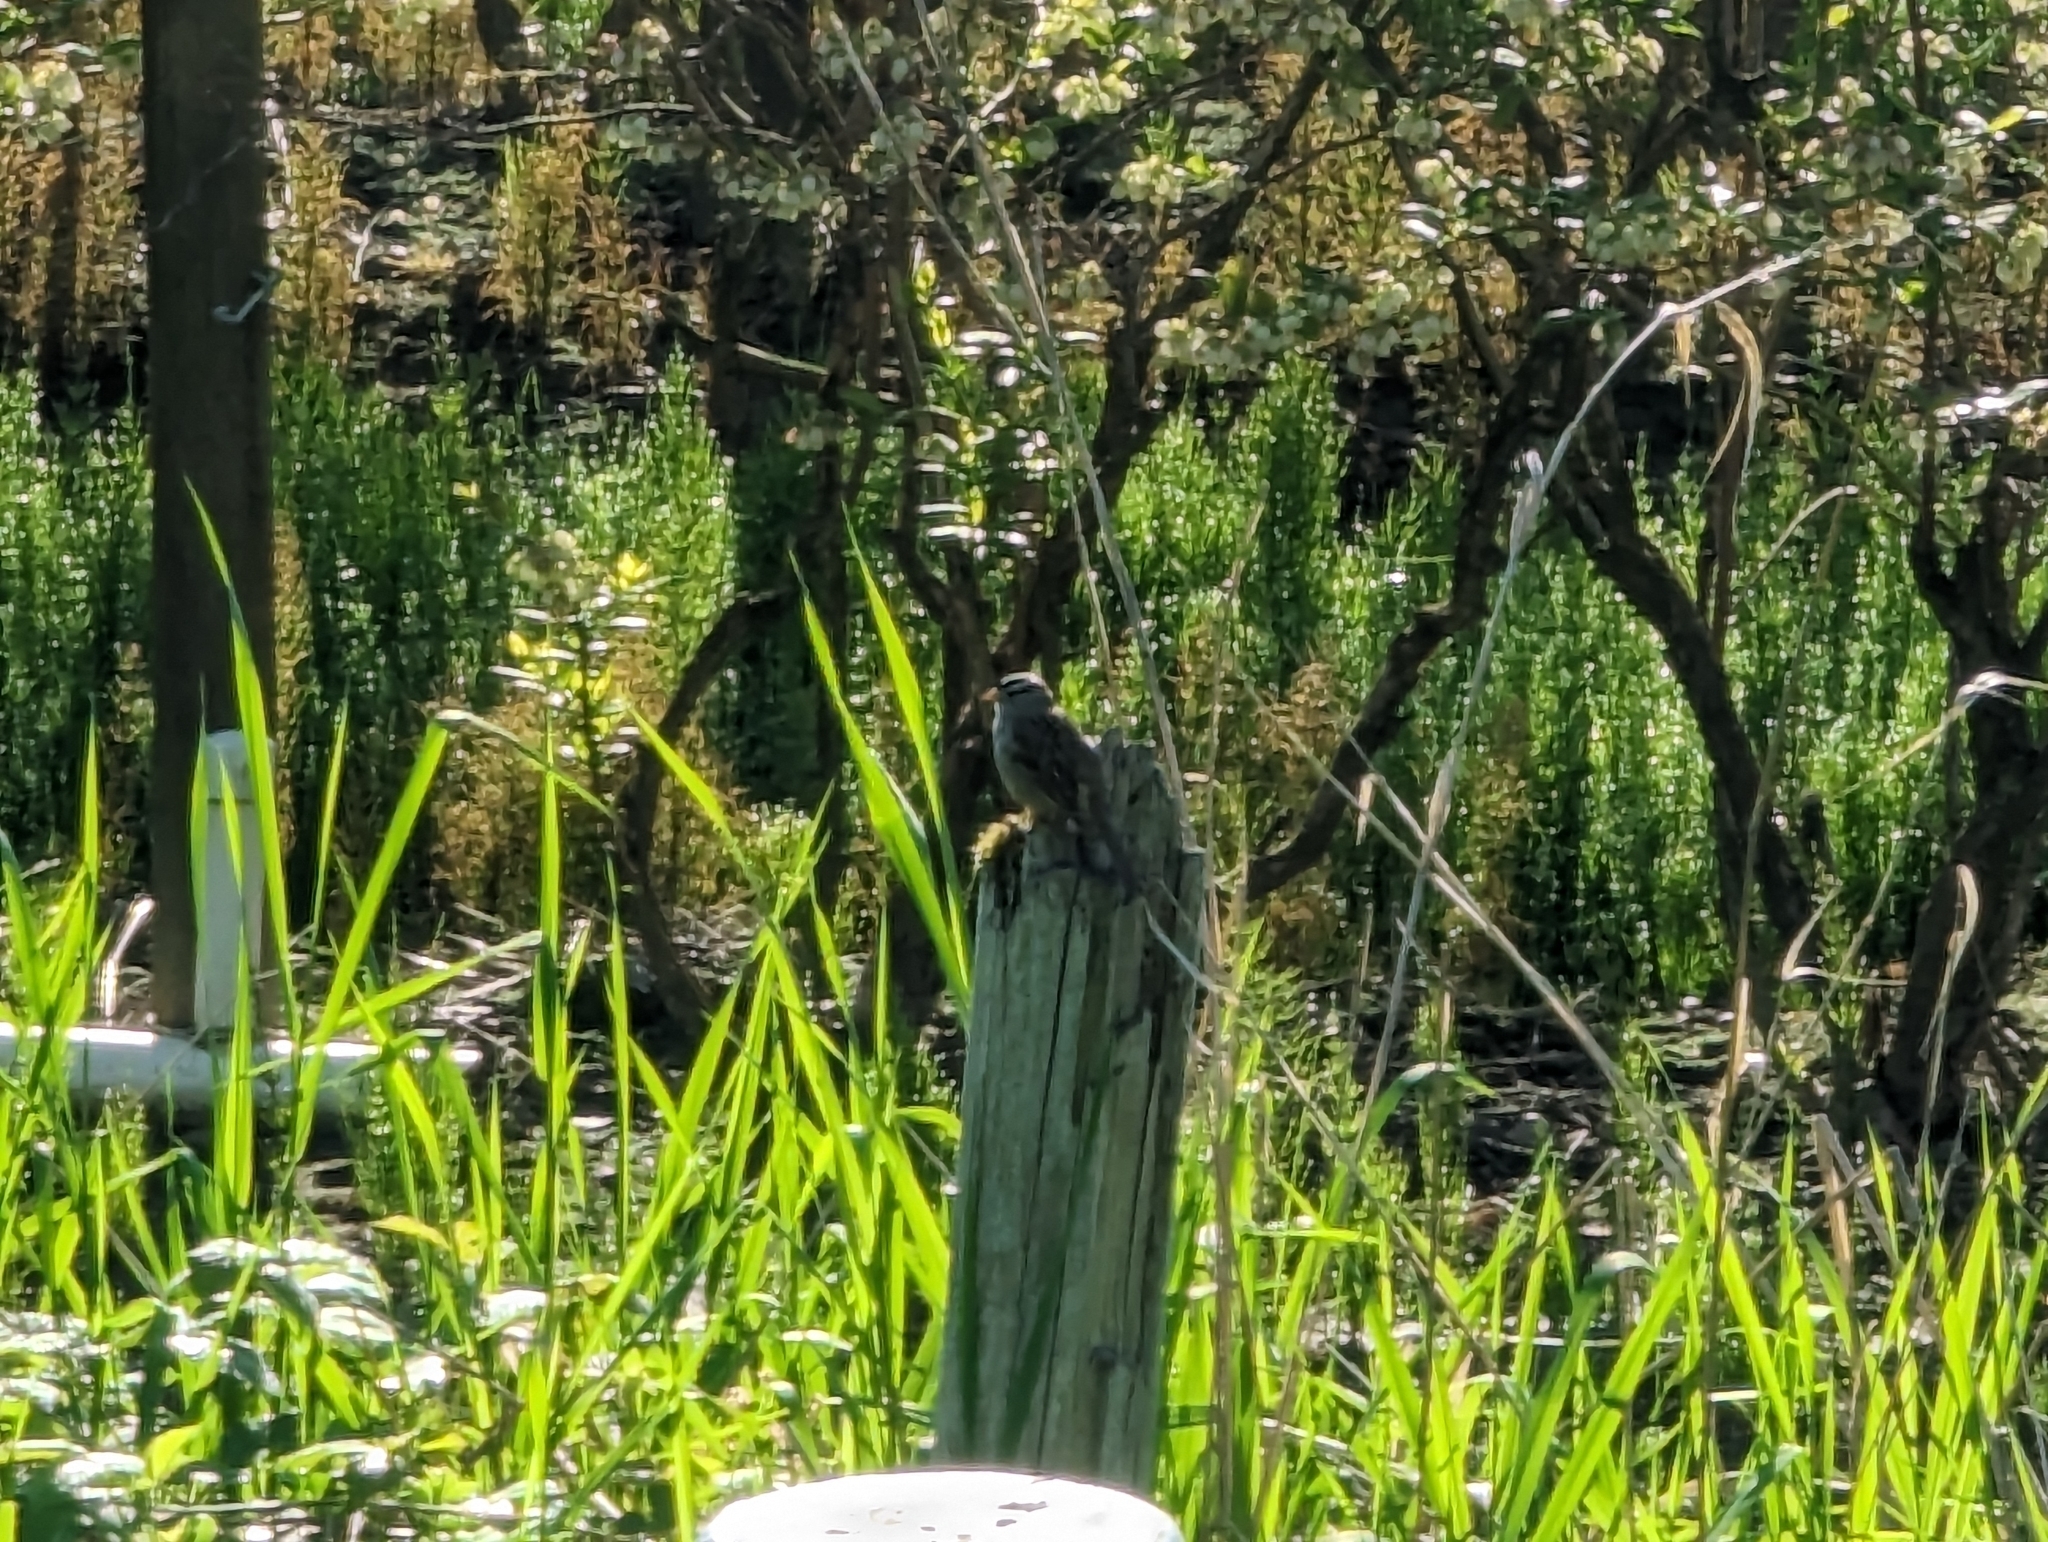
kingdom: Animalia
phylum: Chordata
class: Aves
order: Passeriformes
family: Passerellidae
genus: Zonotrichia
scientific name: Zonotrichia leucophrys
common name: White-crowned sparrow
